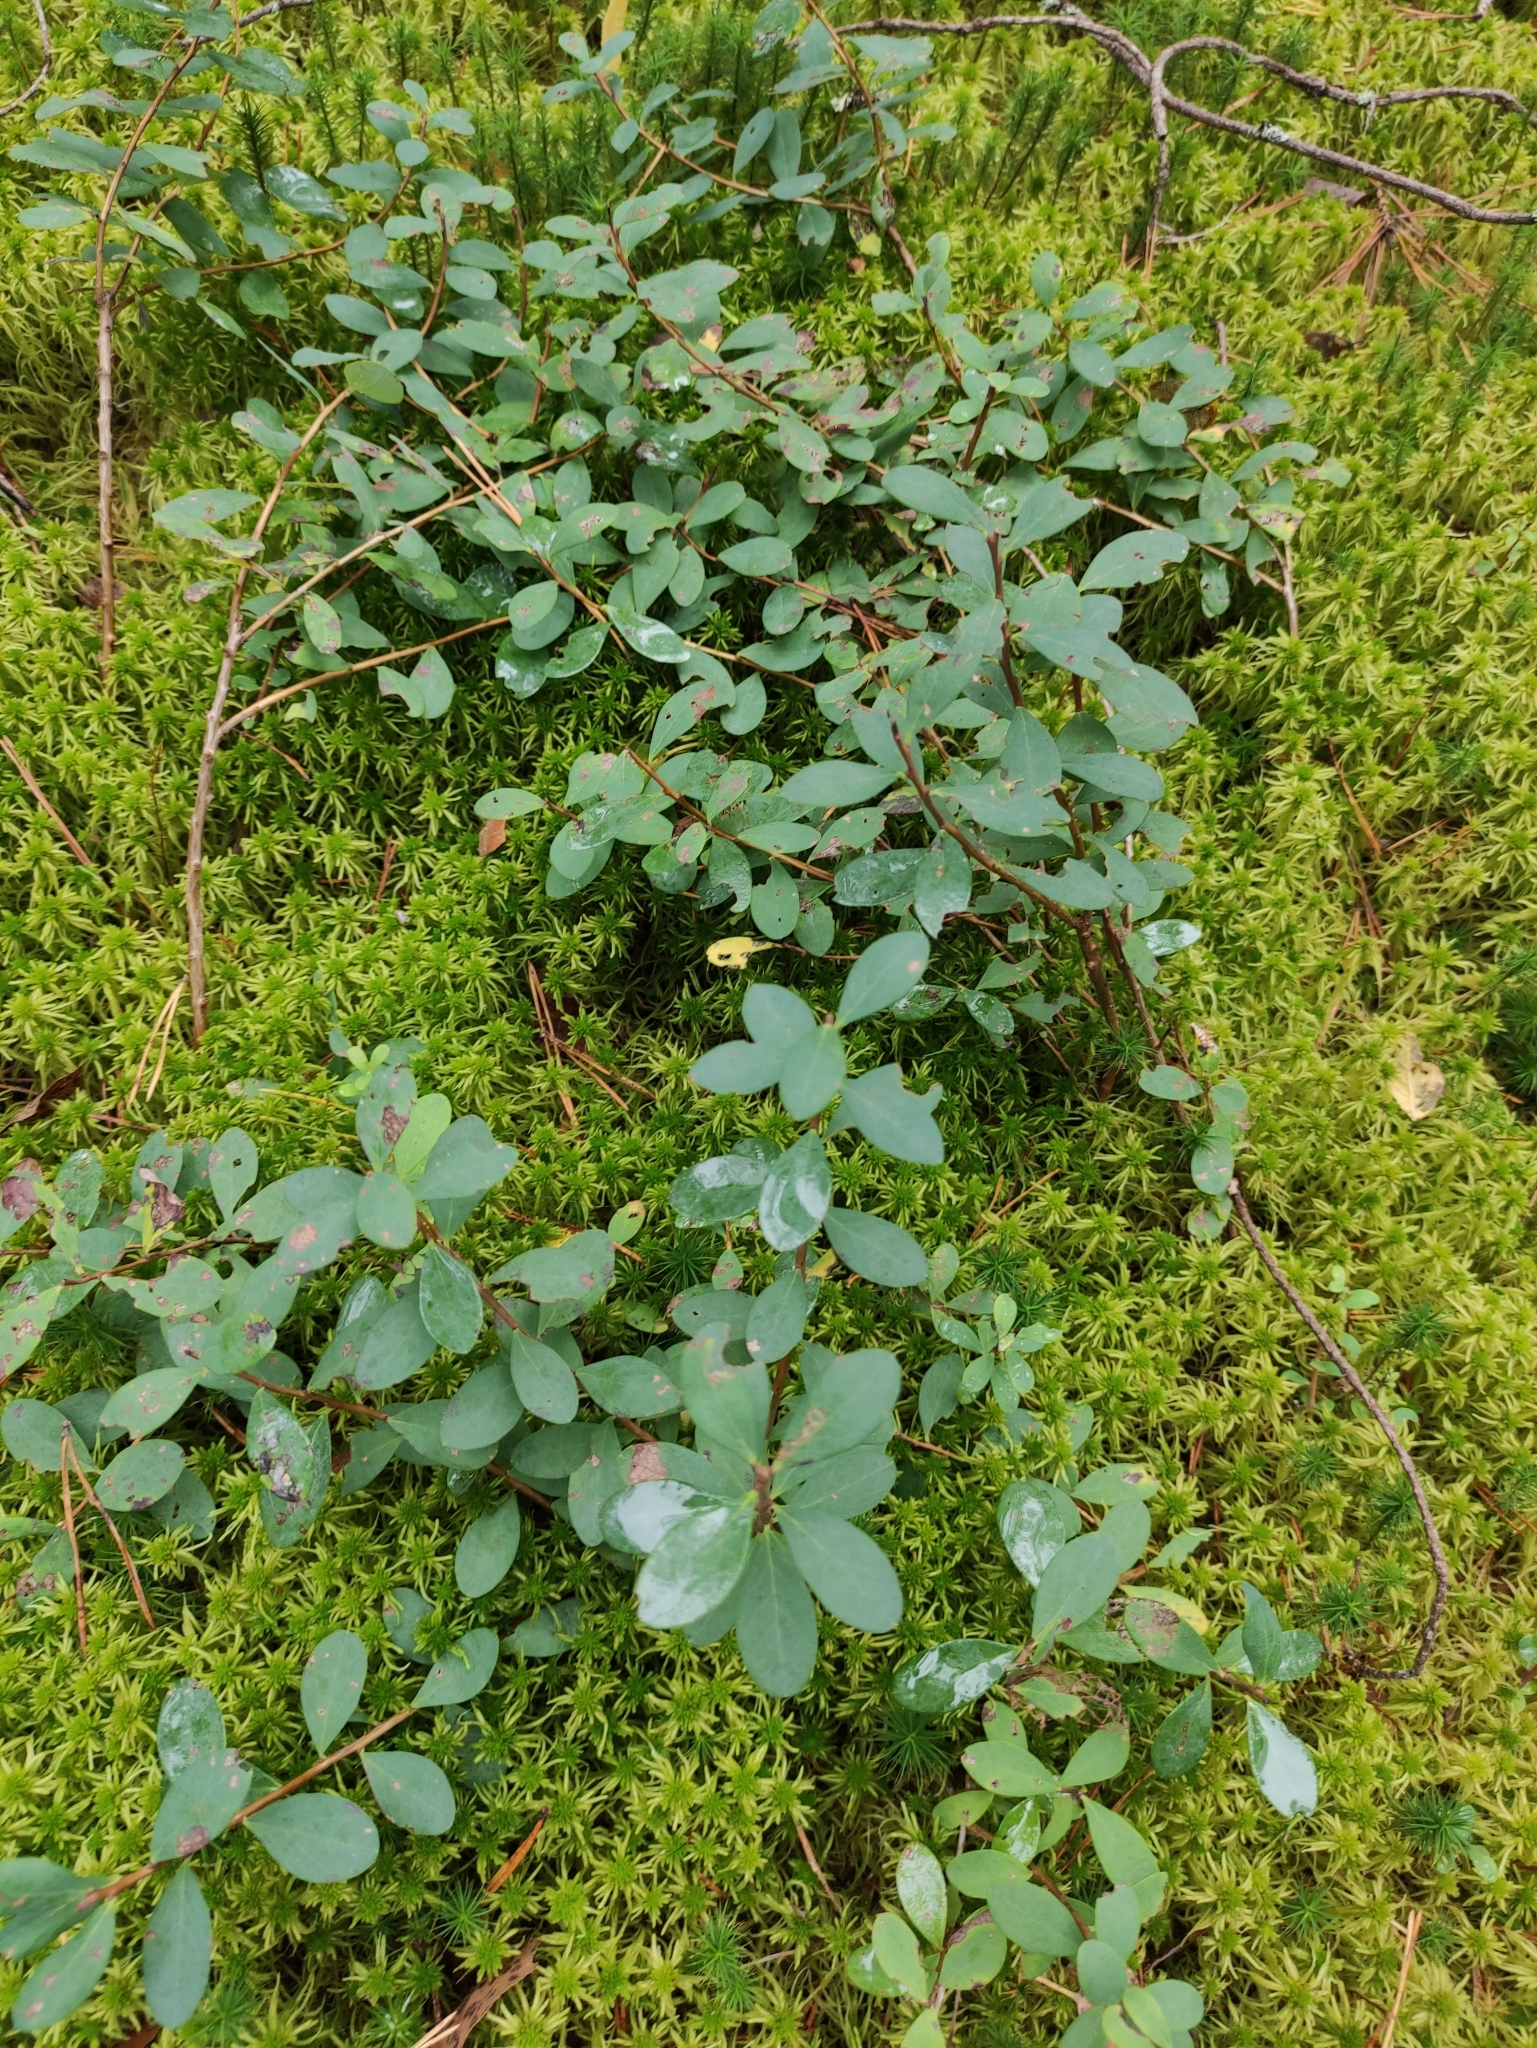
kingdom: Plantae
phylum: Tracheophyta
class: Magnoliopsida
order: Ericales
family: Ericaceae
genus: Vaccinium
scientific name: Vaccinium uliginosum
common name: Bog bilberry
